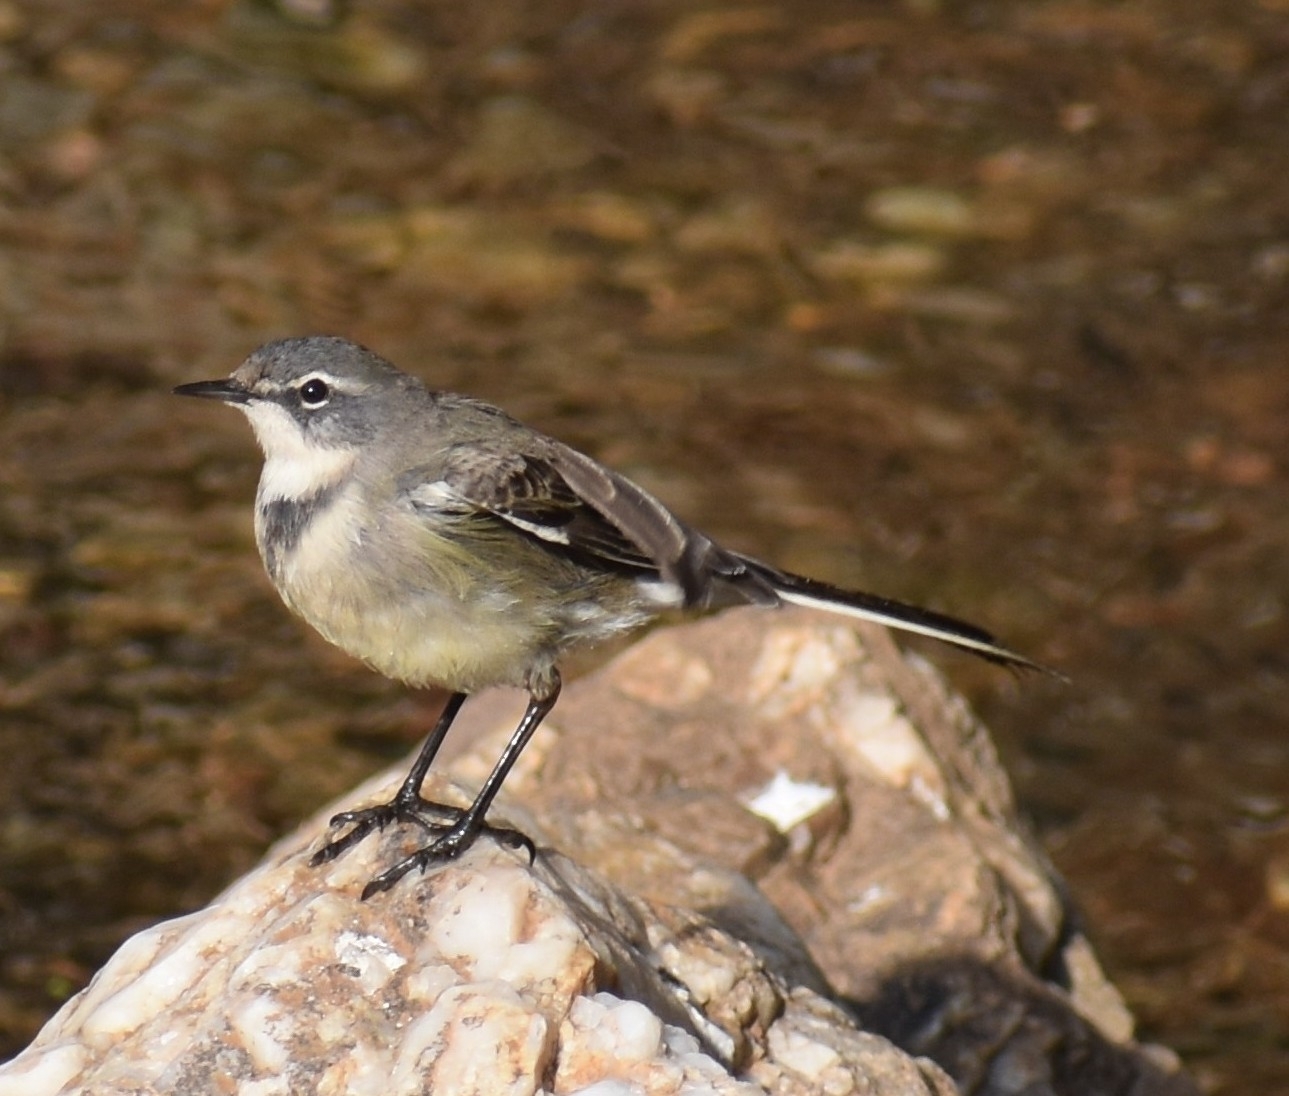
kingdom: Animalia
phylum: Chordata
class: Aves
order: Passeriformes
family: Motacillidae
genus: Motacilla
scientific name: Motacilla capensis
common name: Cape wagtail
